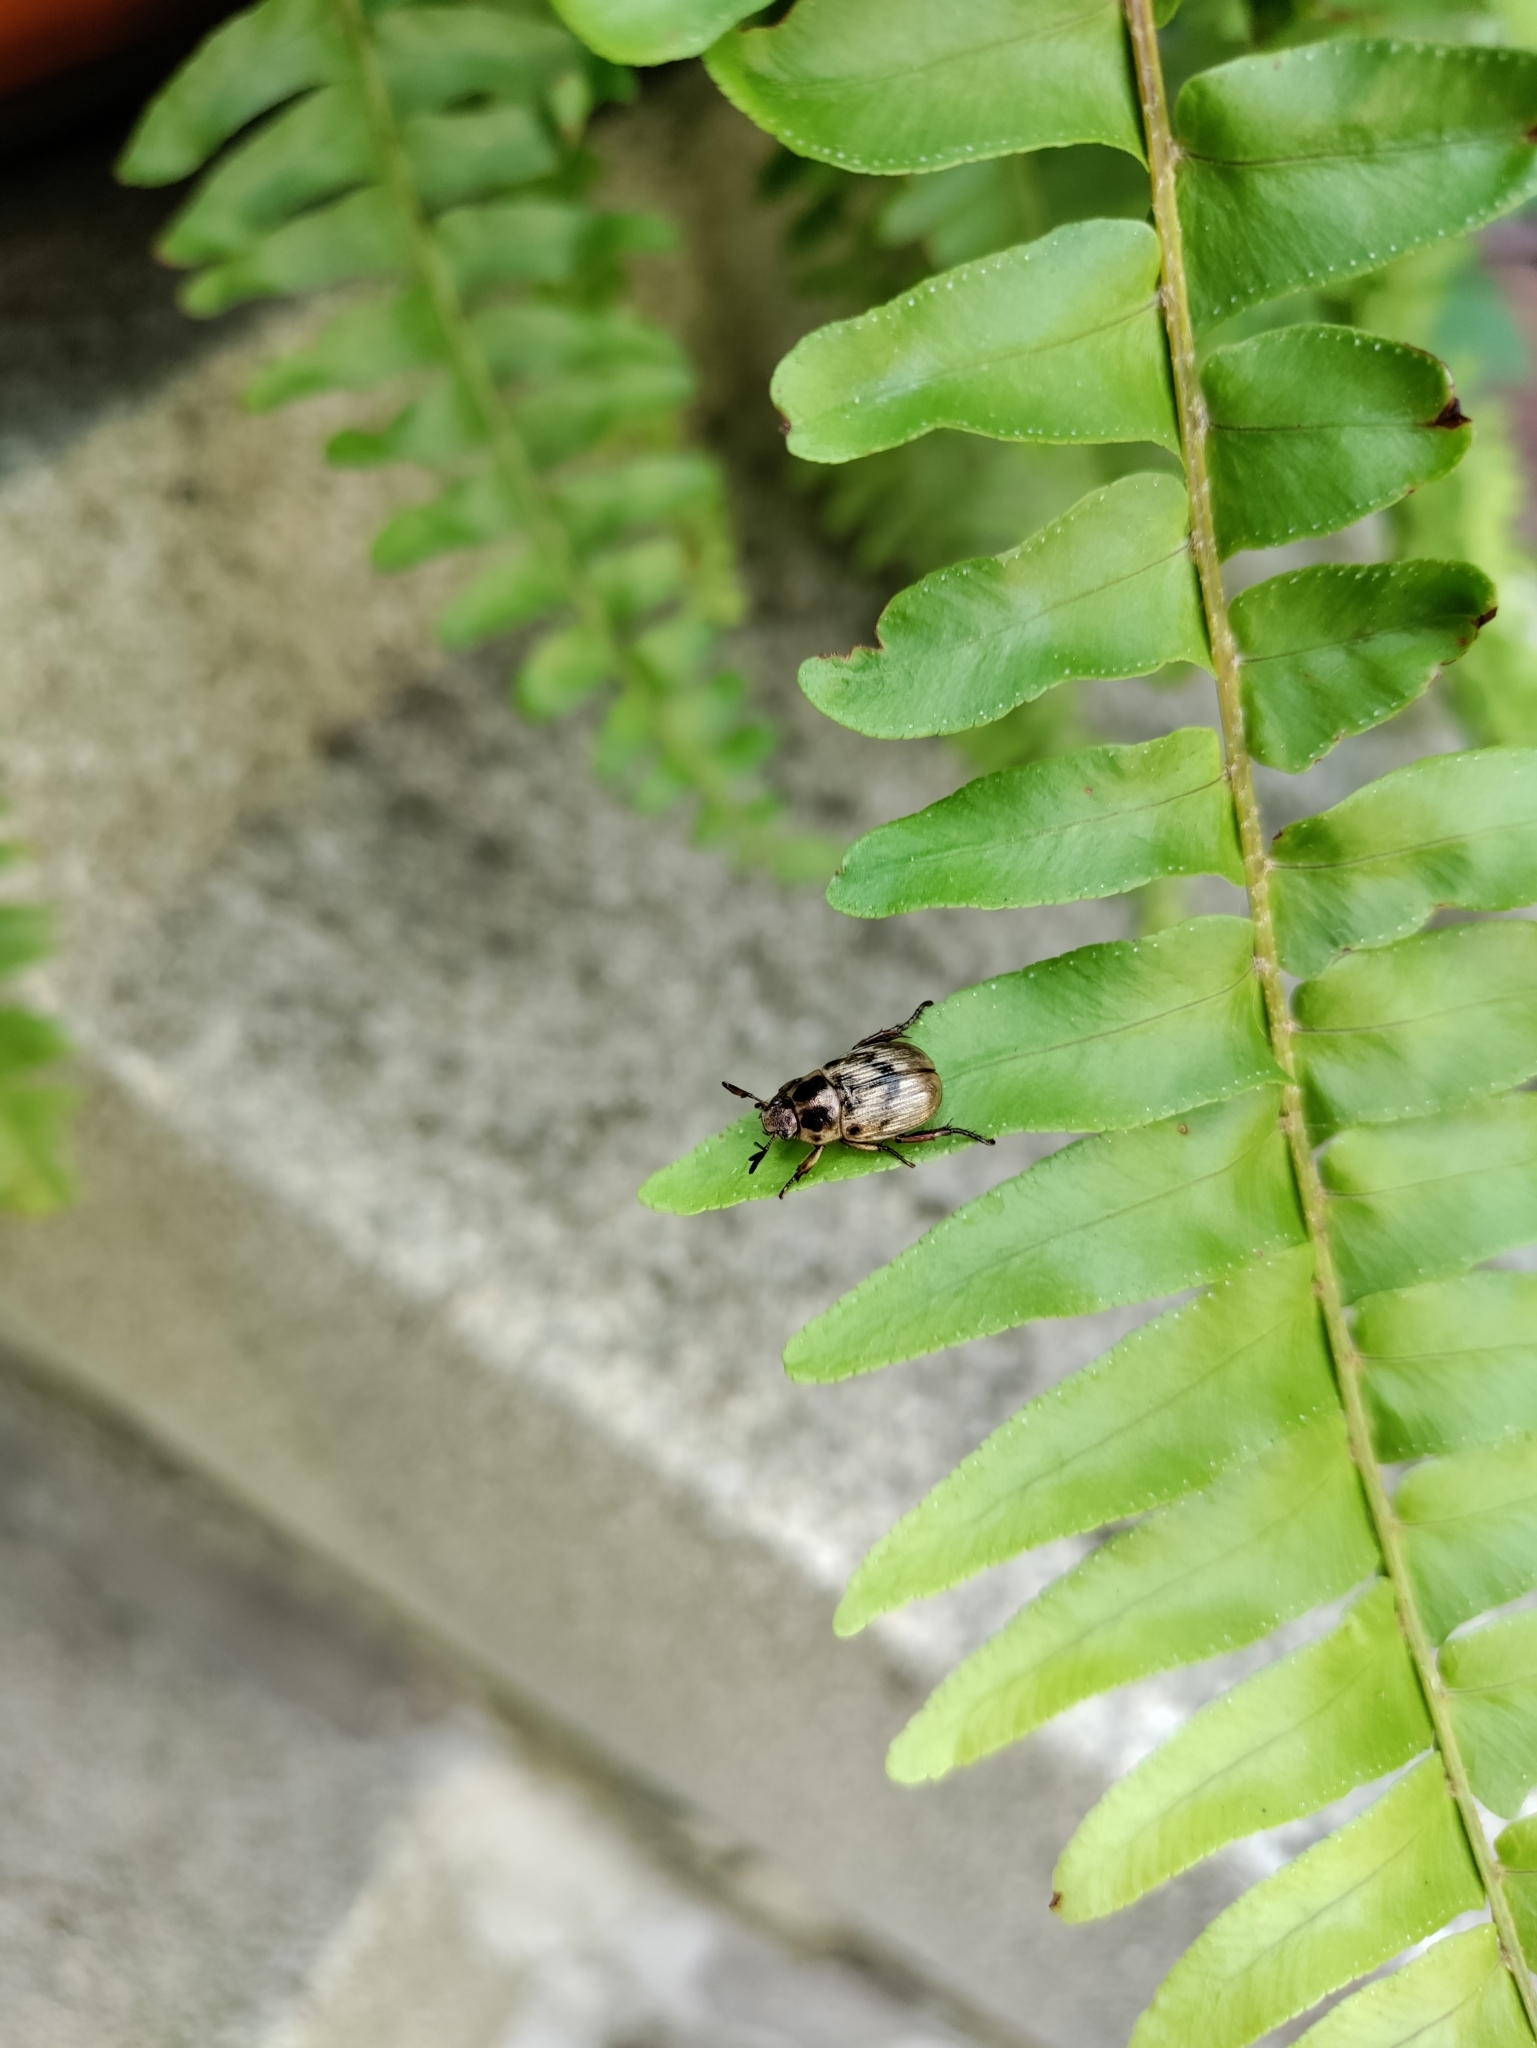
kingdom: Animalia
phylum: Arthropoda
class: Insecta
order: Coleoptera
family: Scarabaeidae
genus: Exomala
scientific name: Exomala orientalis
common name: Oriental beetle
